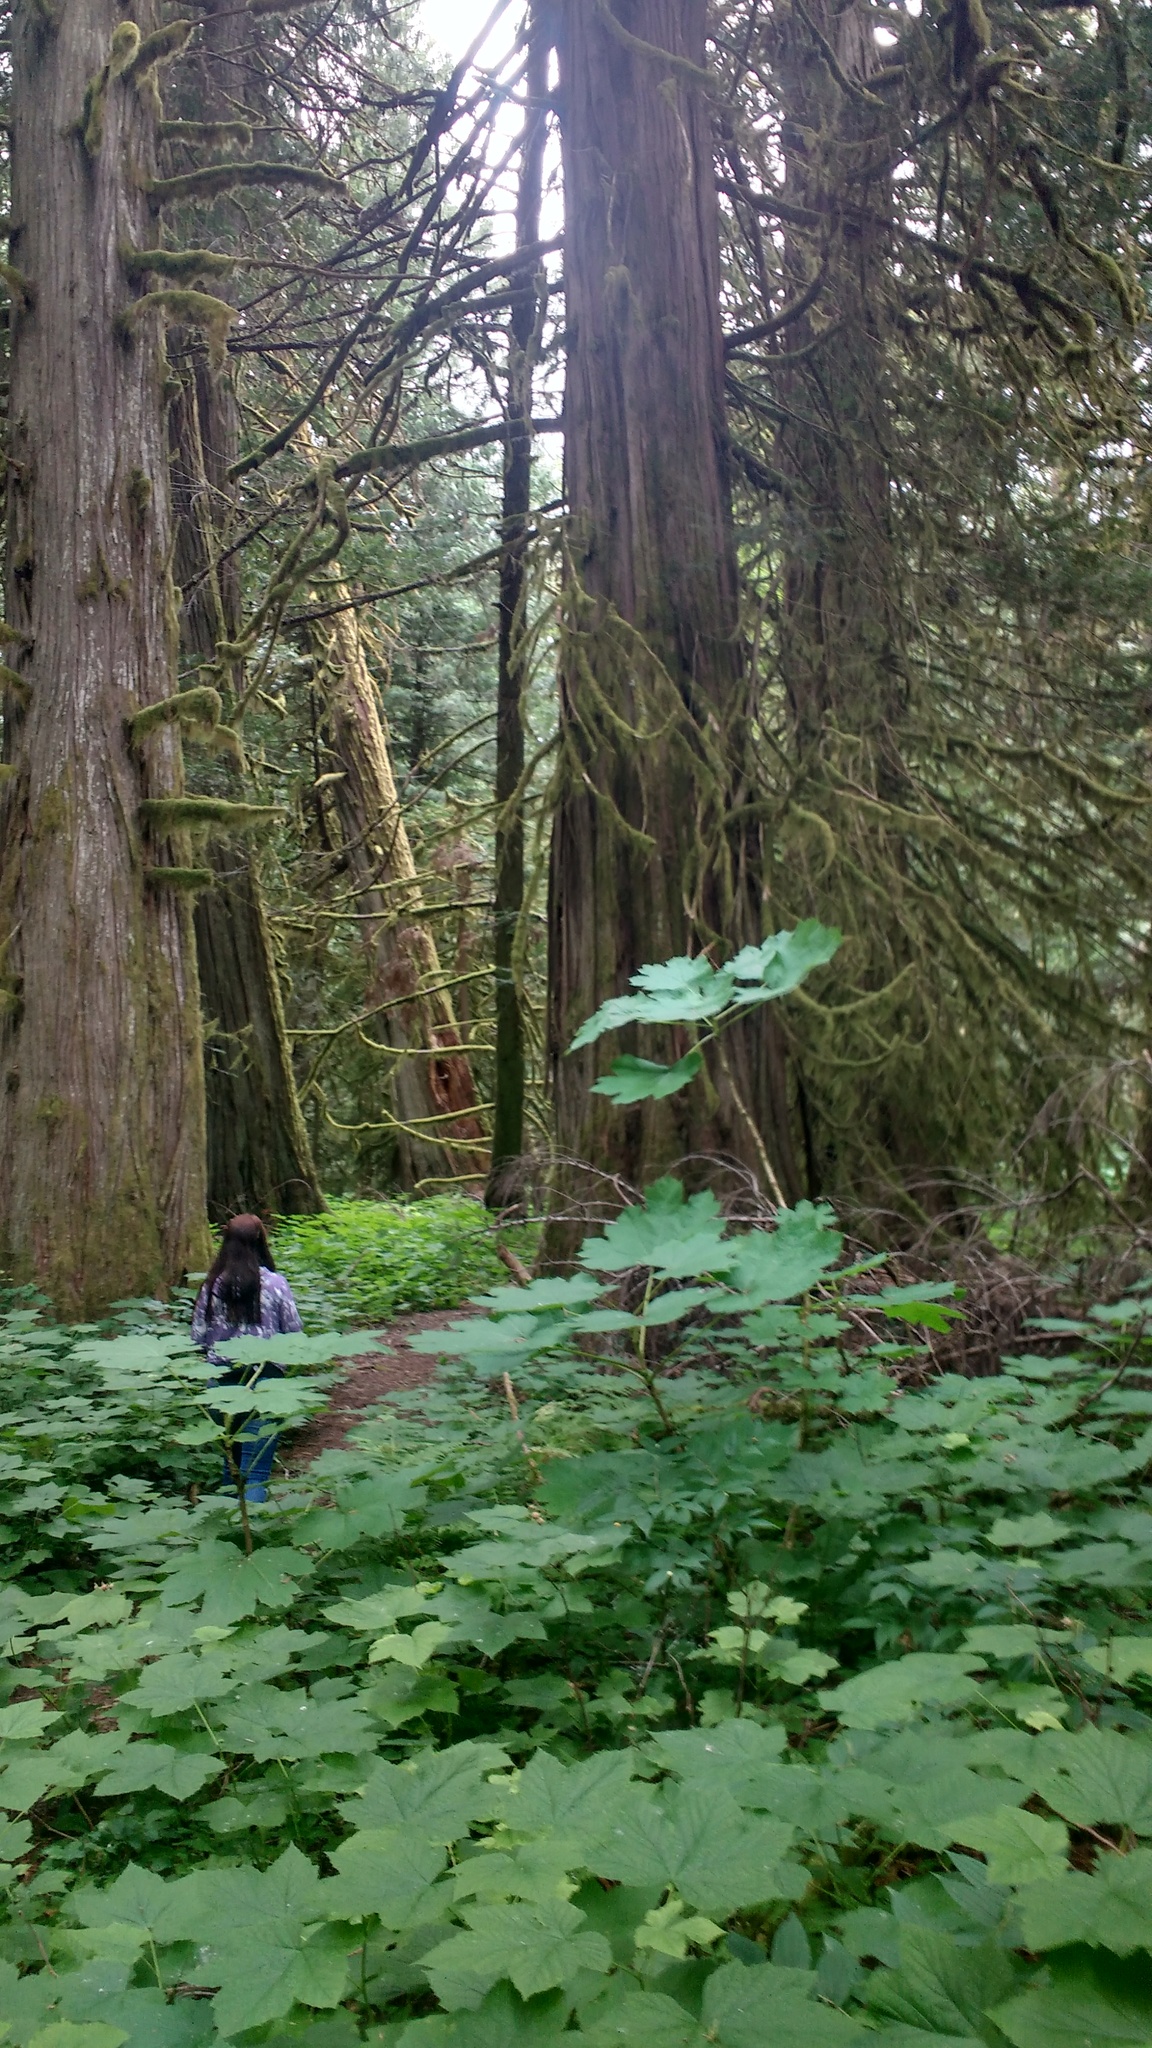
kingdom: Plantae
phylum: Tracheophyta
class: Magnoliopsida
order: Apiales
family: Araliaceae
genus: Oplopanax
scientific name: Oplopanax horridus
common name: Devil's walking-stick
